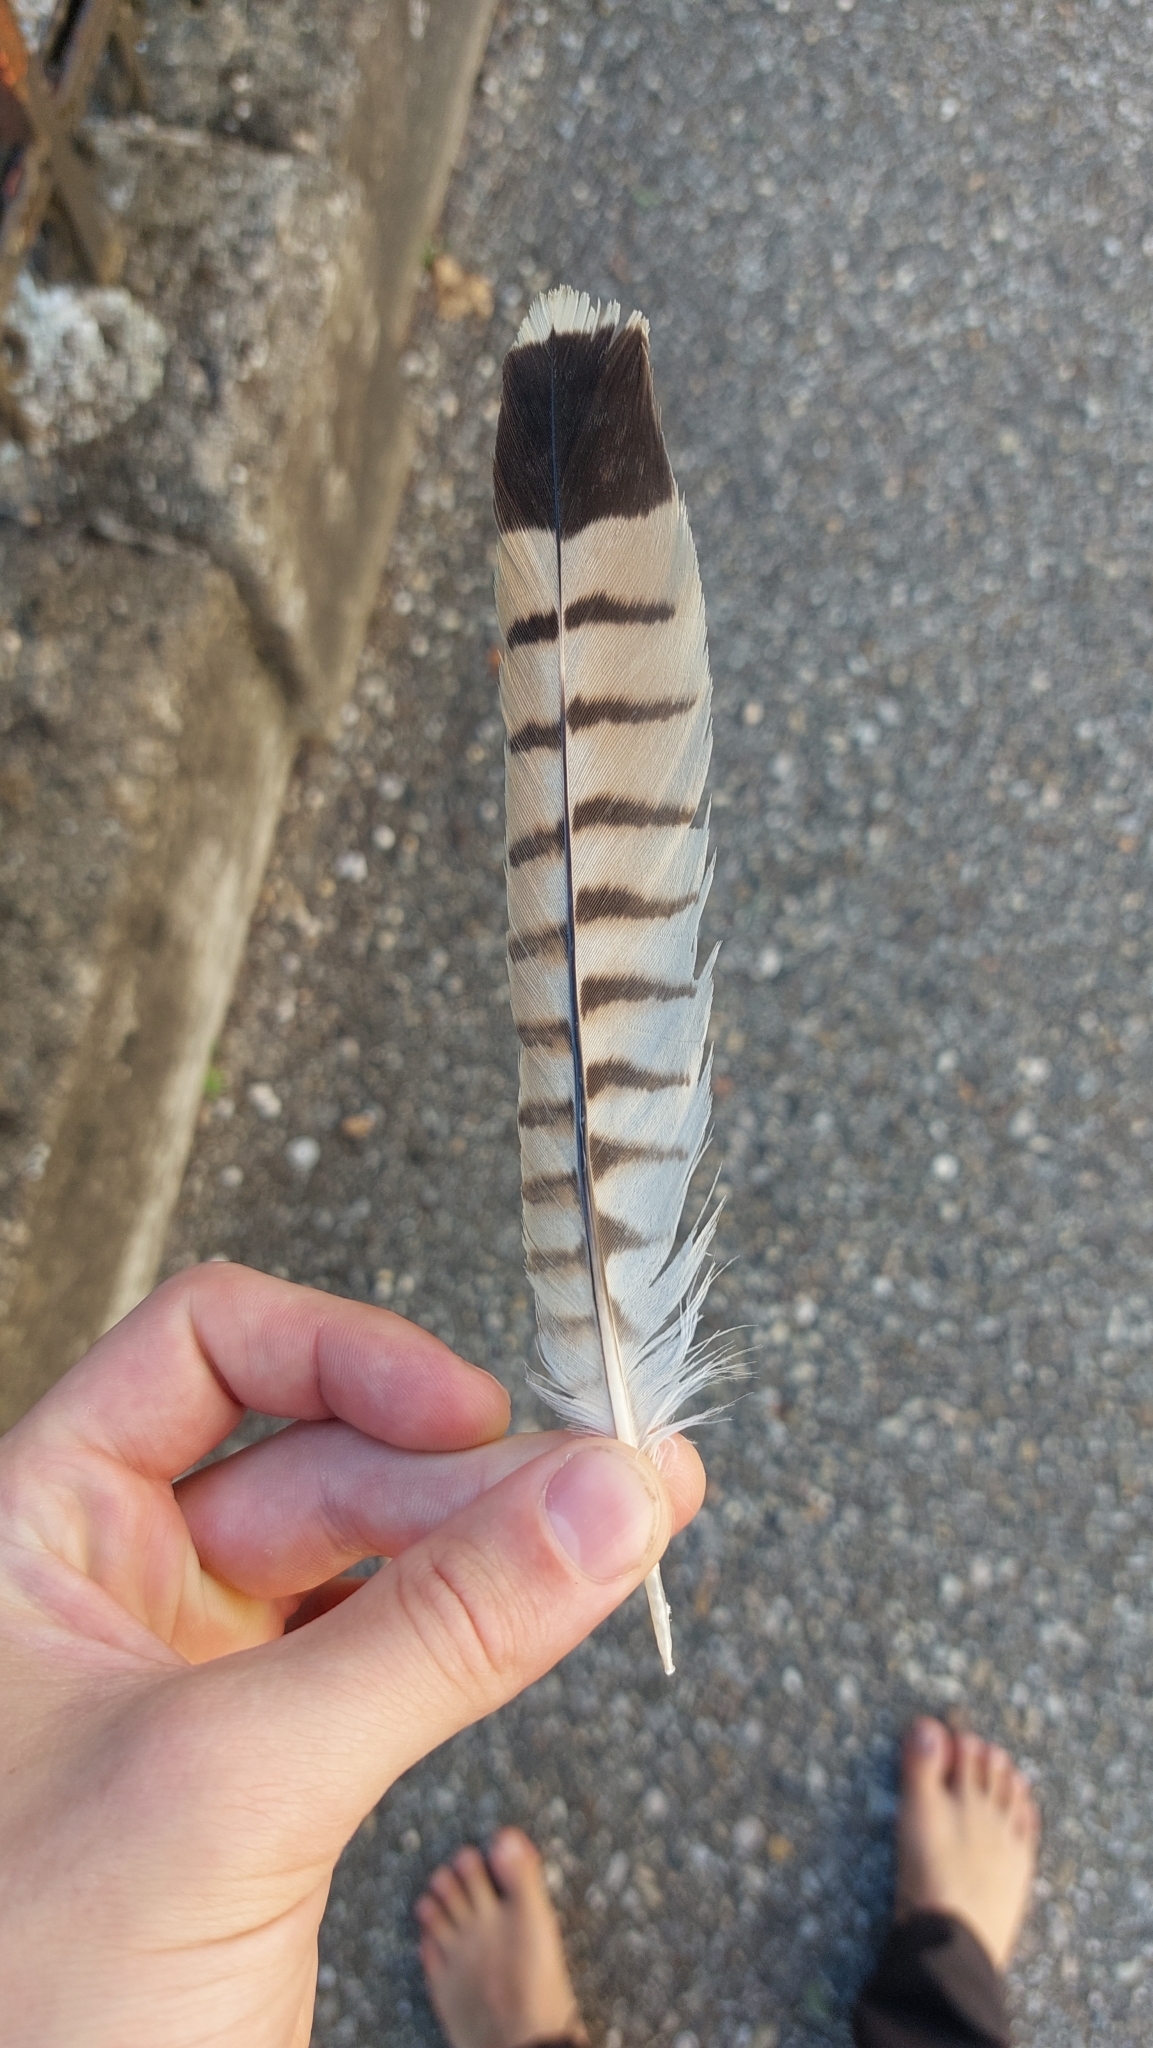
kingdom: Animalia
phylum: Chordata
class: Aves
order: Falconiformes
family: Falconidae
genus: Falco
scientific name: Falco tinnunculus
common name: Common kestrel
